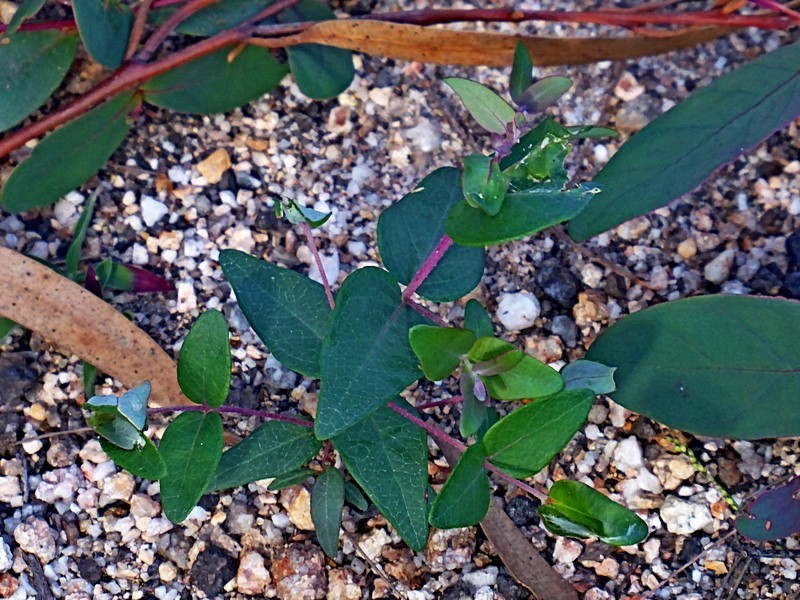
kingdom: Plantae
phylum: Tracheophyta
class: Magnoliopsida
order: Myrtales
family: Myrtaceae
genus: Eucalyptus
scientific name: Eucalyptus angophoroides
